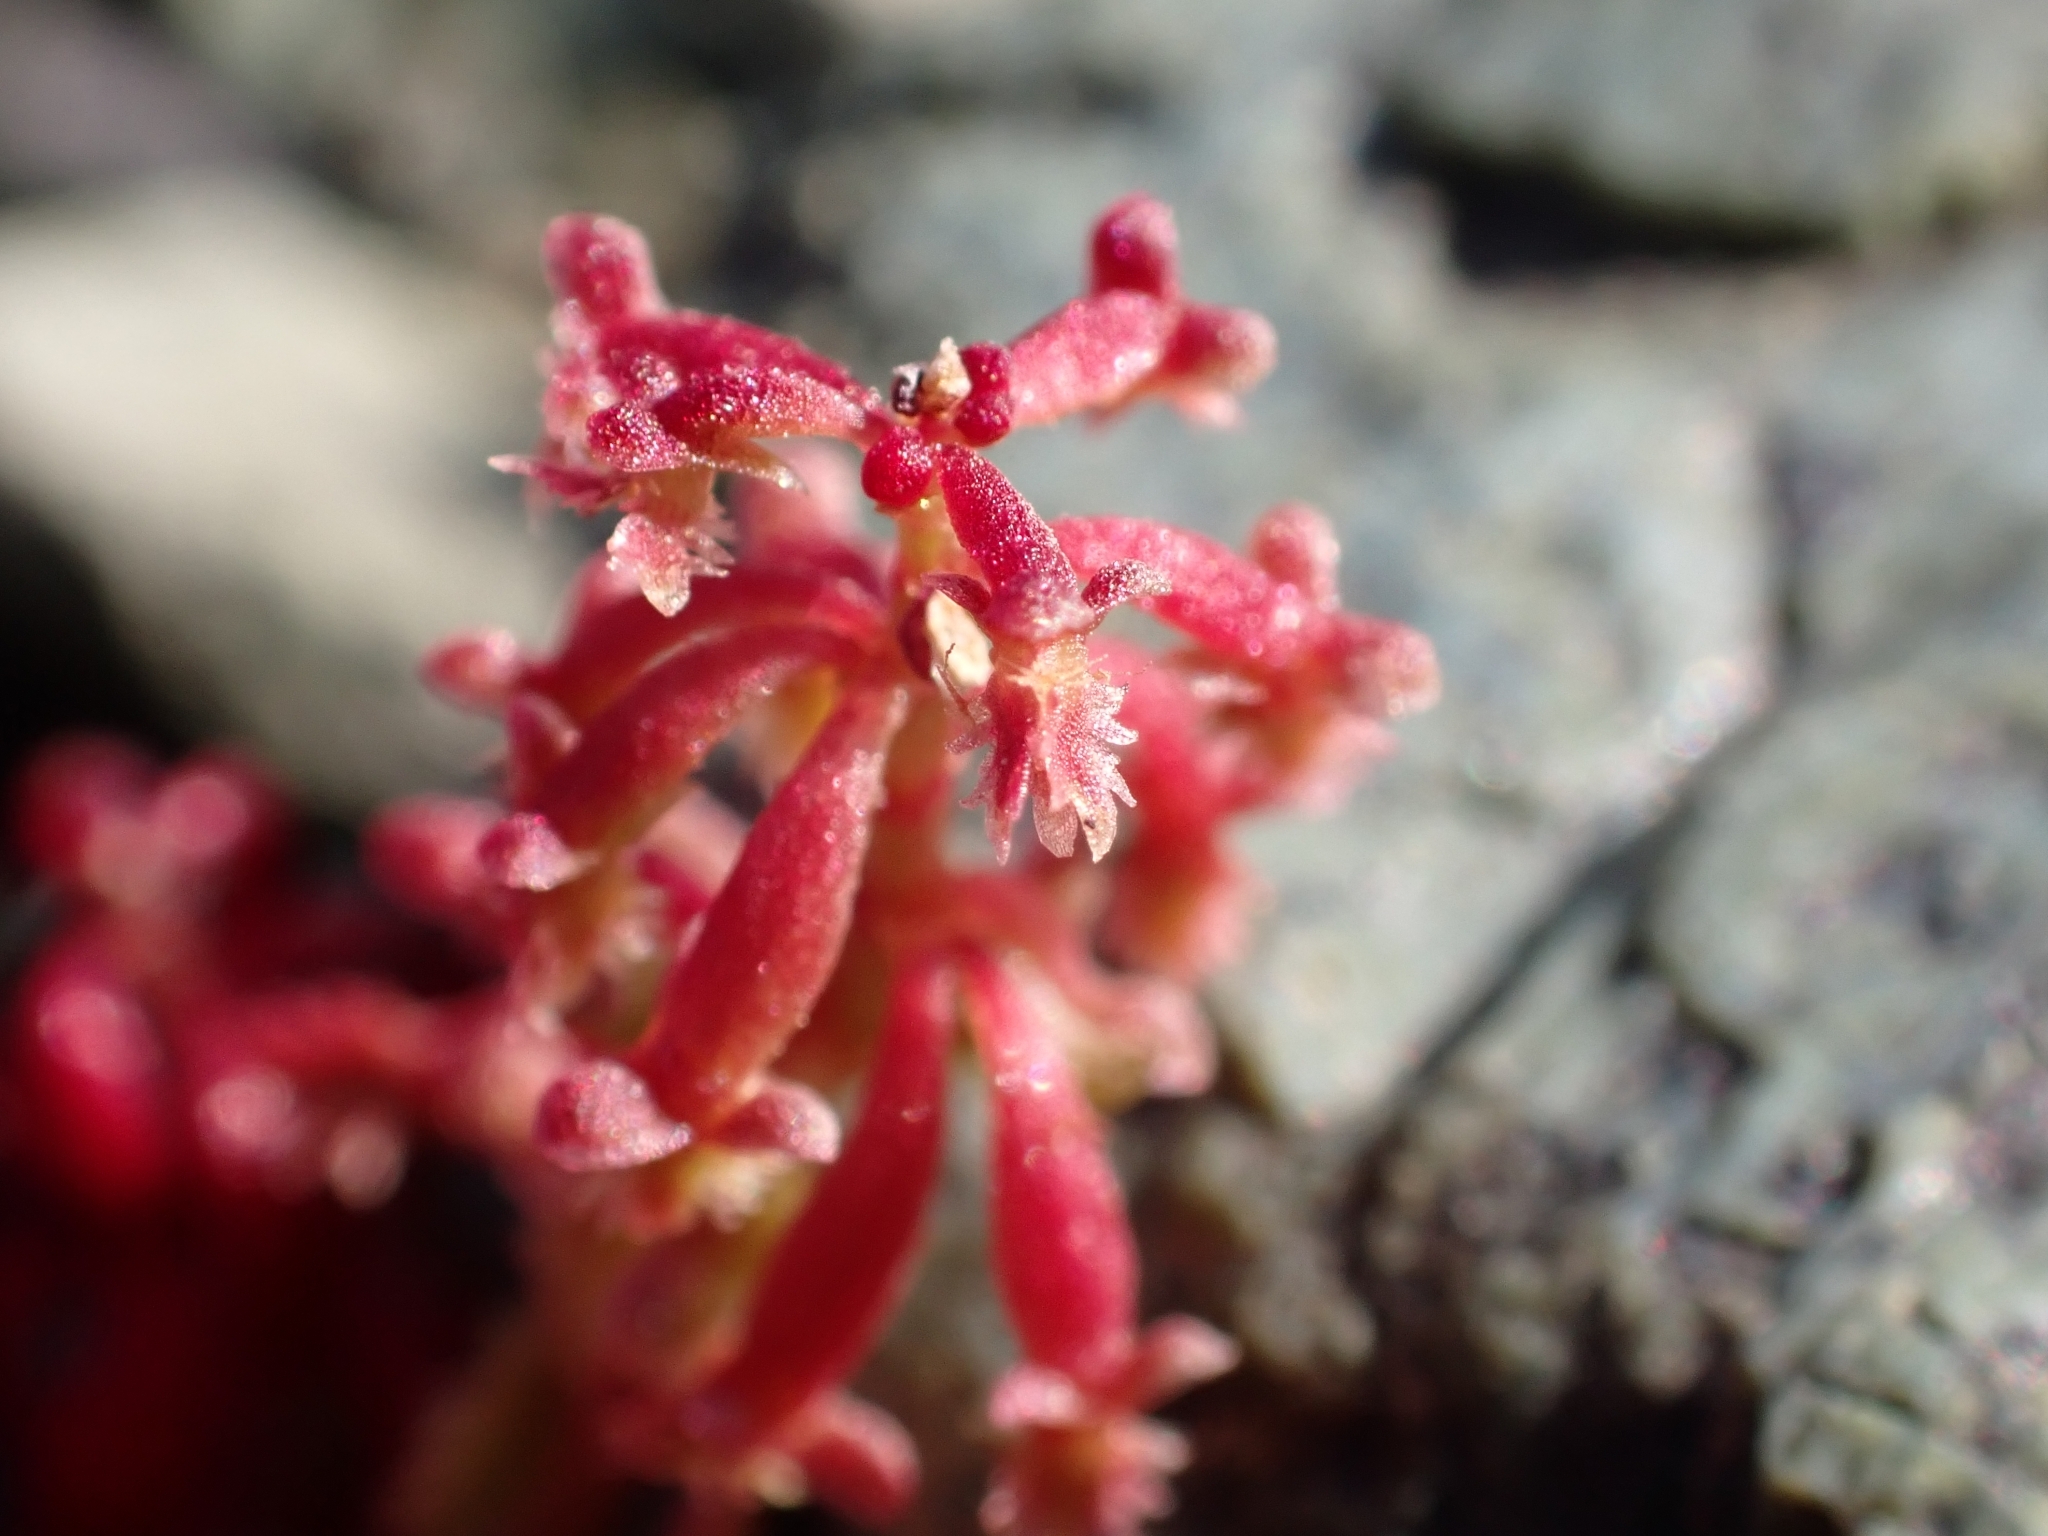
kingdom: Plantae
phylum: Tracheophyta
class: Magnoliopsida
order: Caryophyllales
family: Polygonaceae
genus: Rumex
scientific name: Rumex bucephalophorus
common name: Red dock
